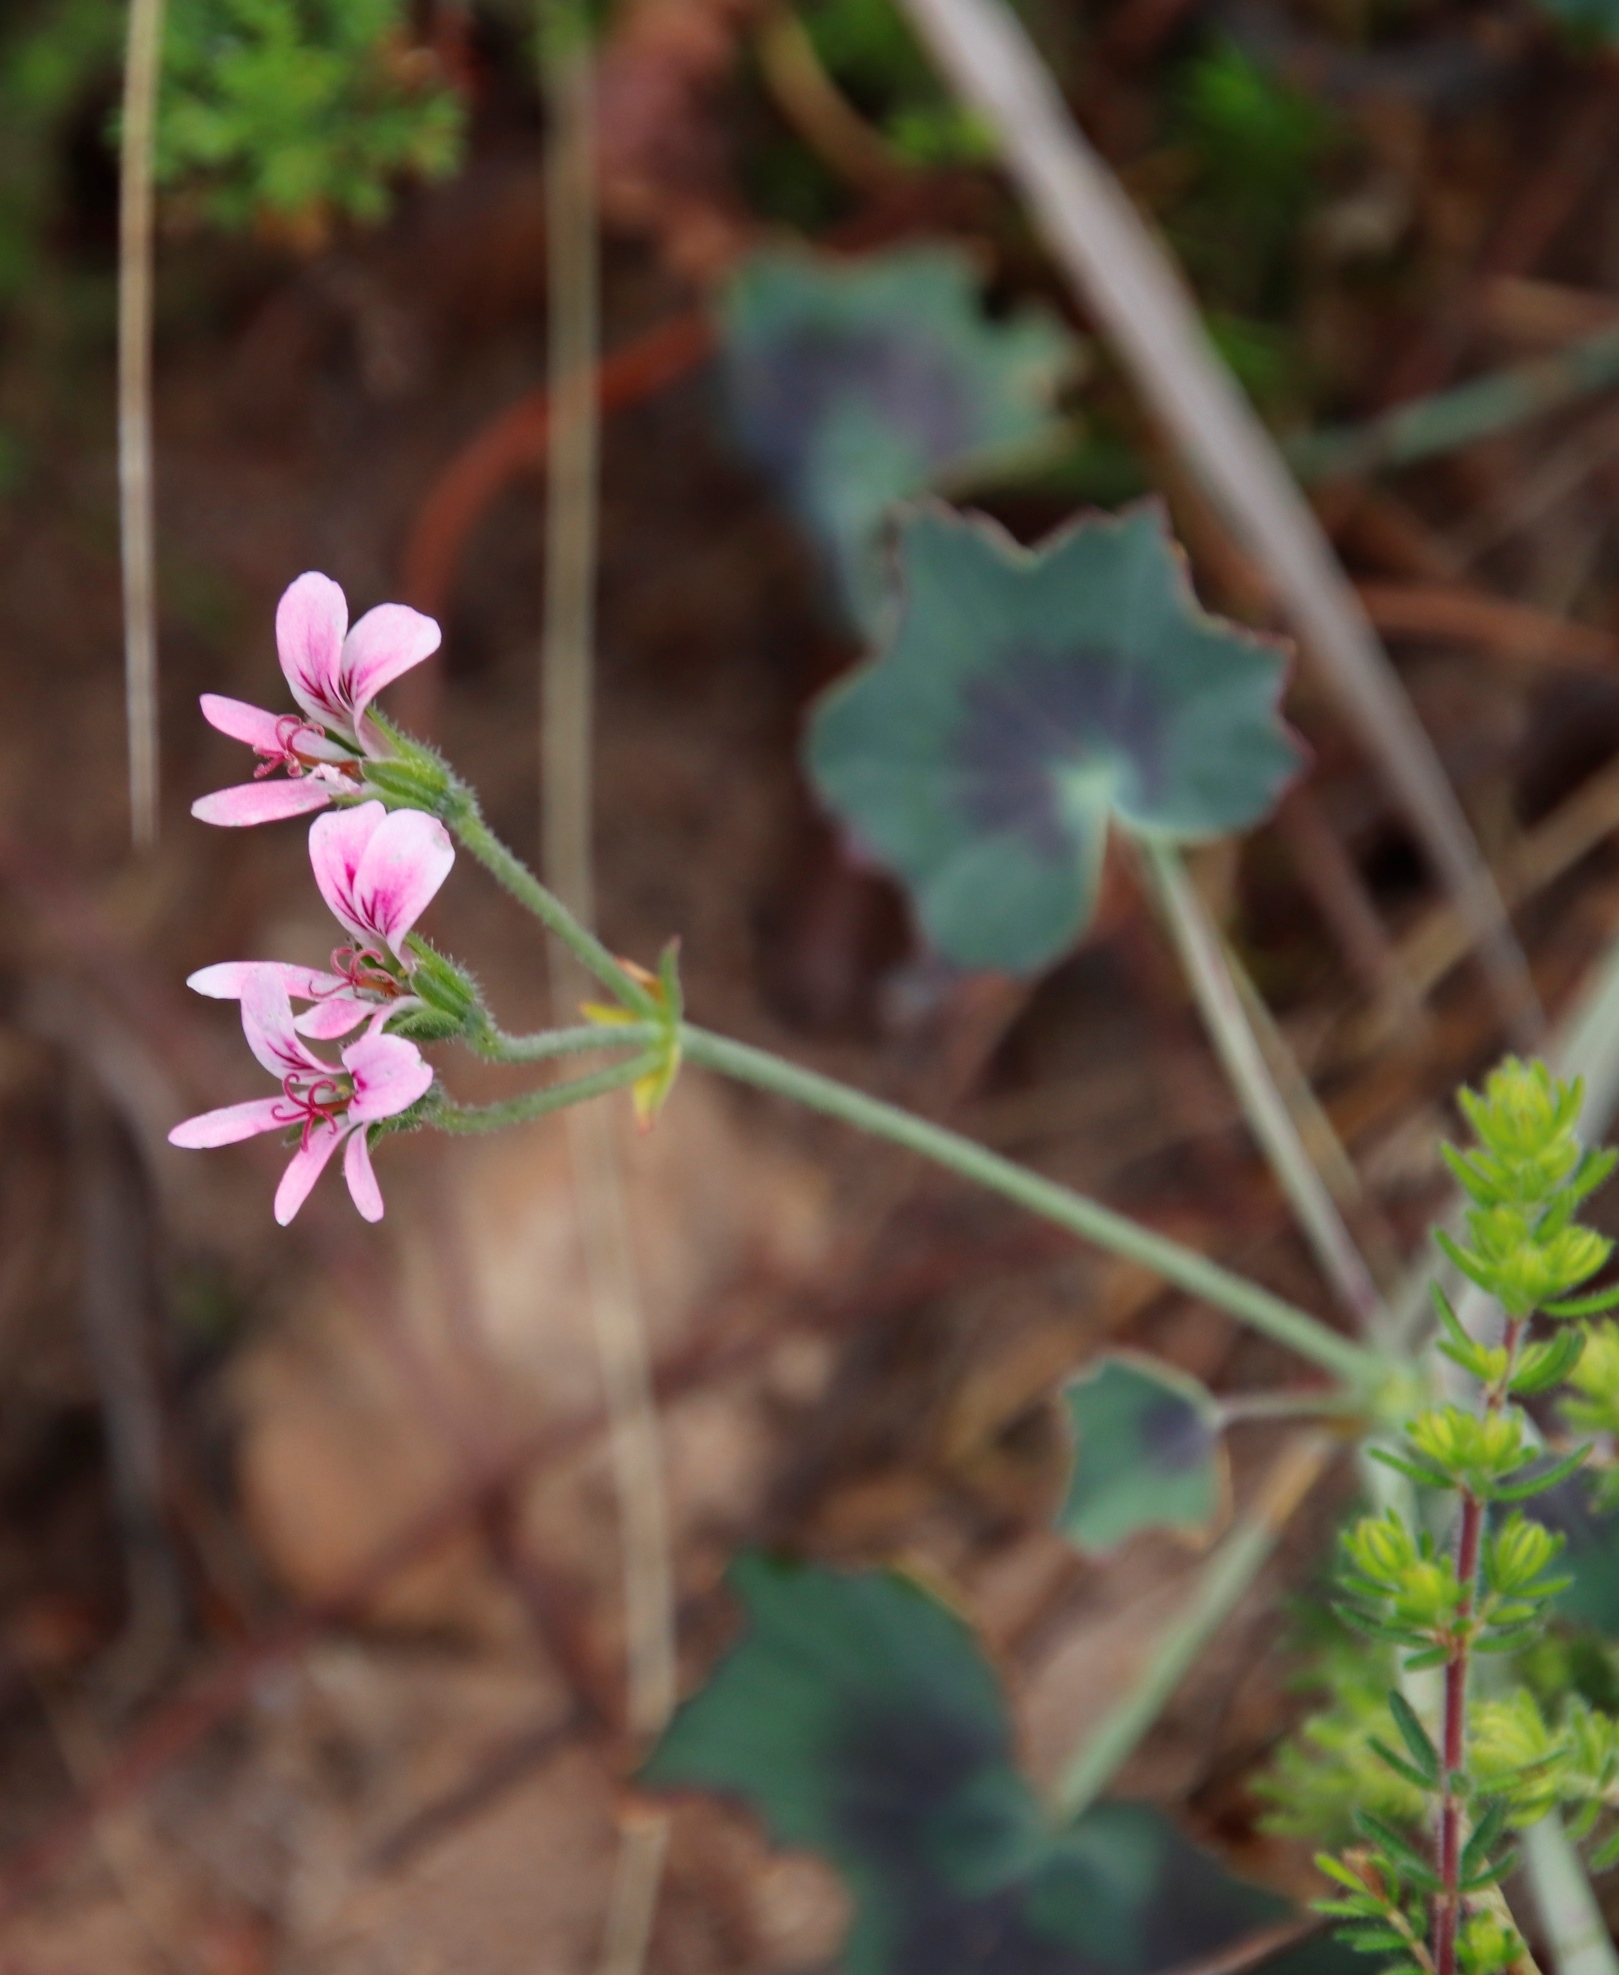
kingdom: Plantae
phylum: Tracheophyta
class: Magnoliopsida
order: Geraniales
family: Geraniaceae
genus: Pelargonium
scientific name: Pelargonium tabulare
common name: Table mountain pelargonium
